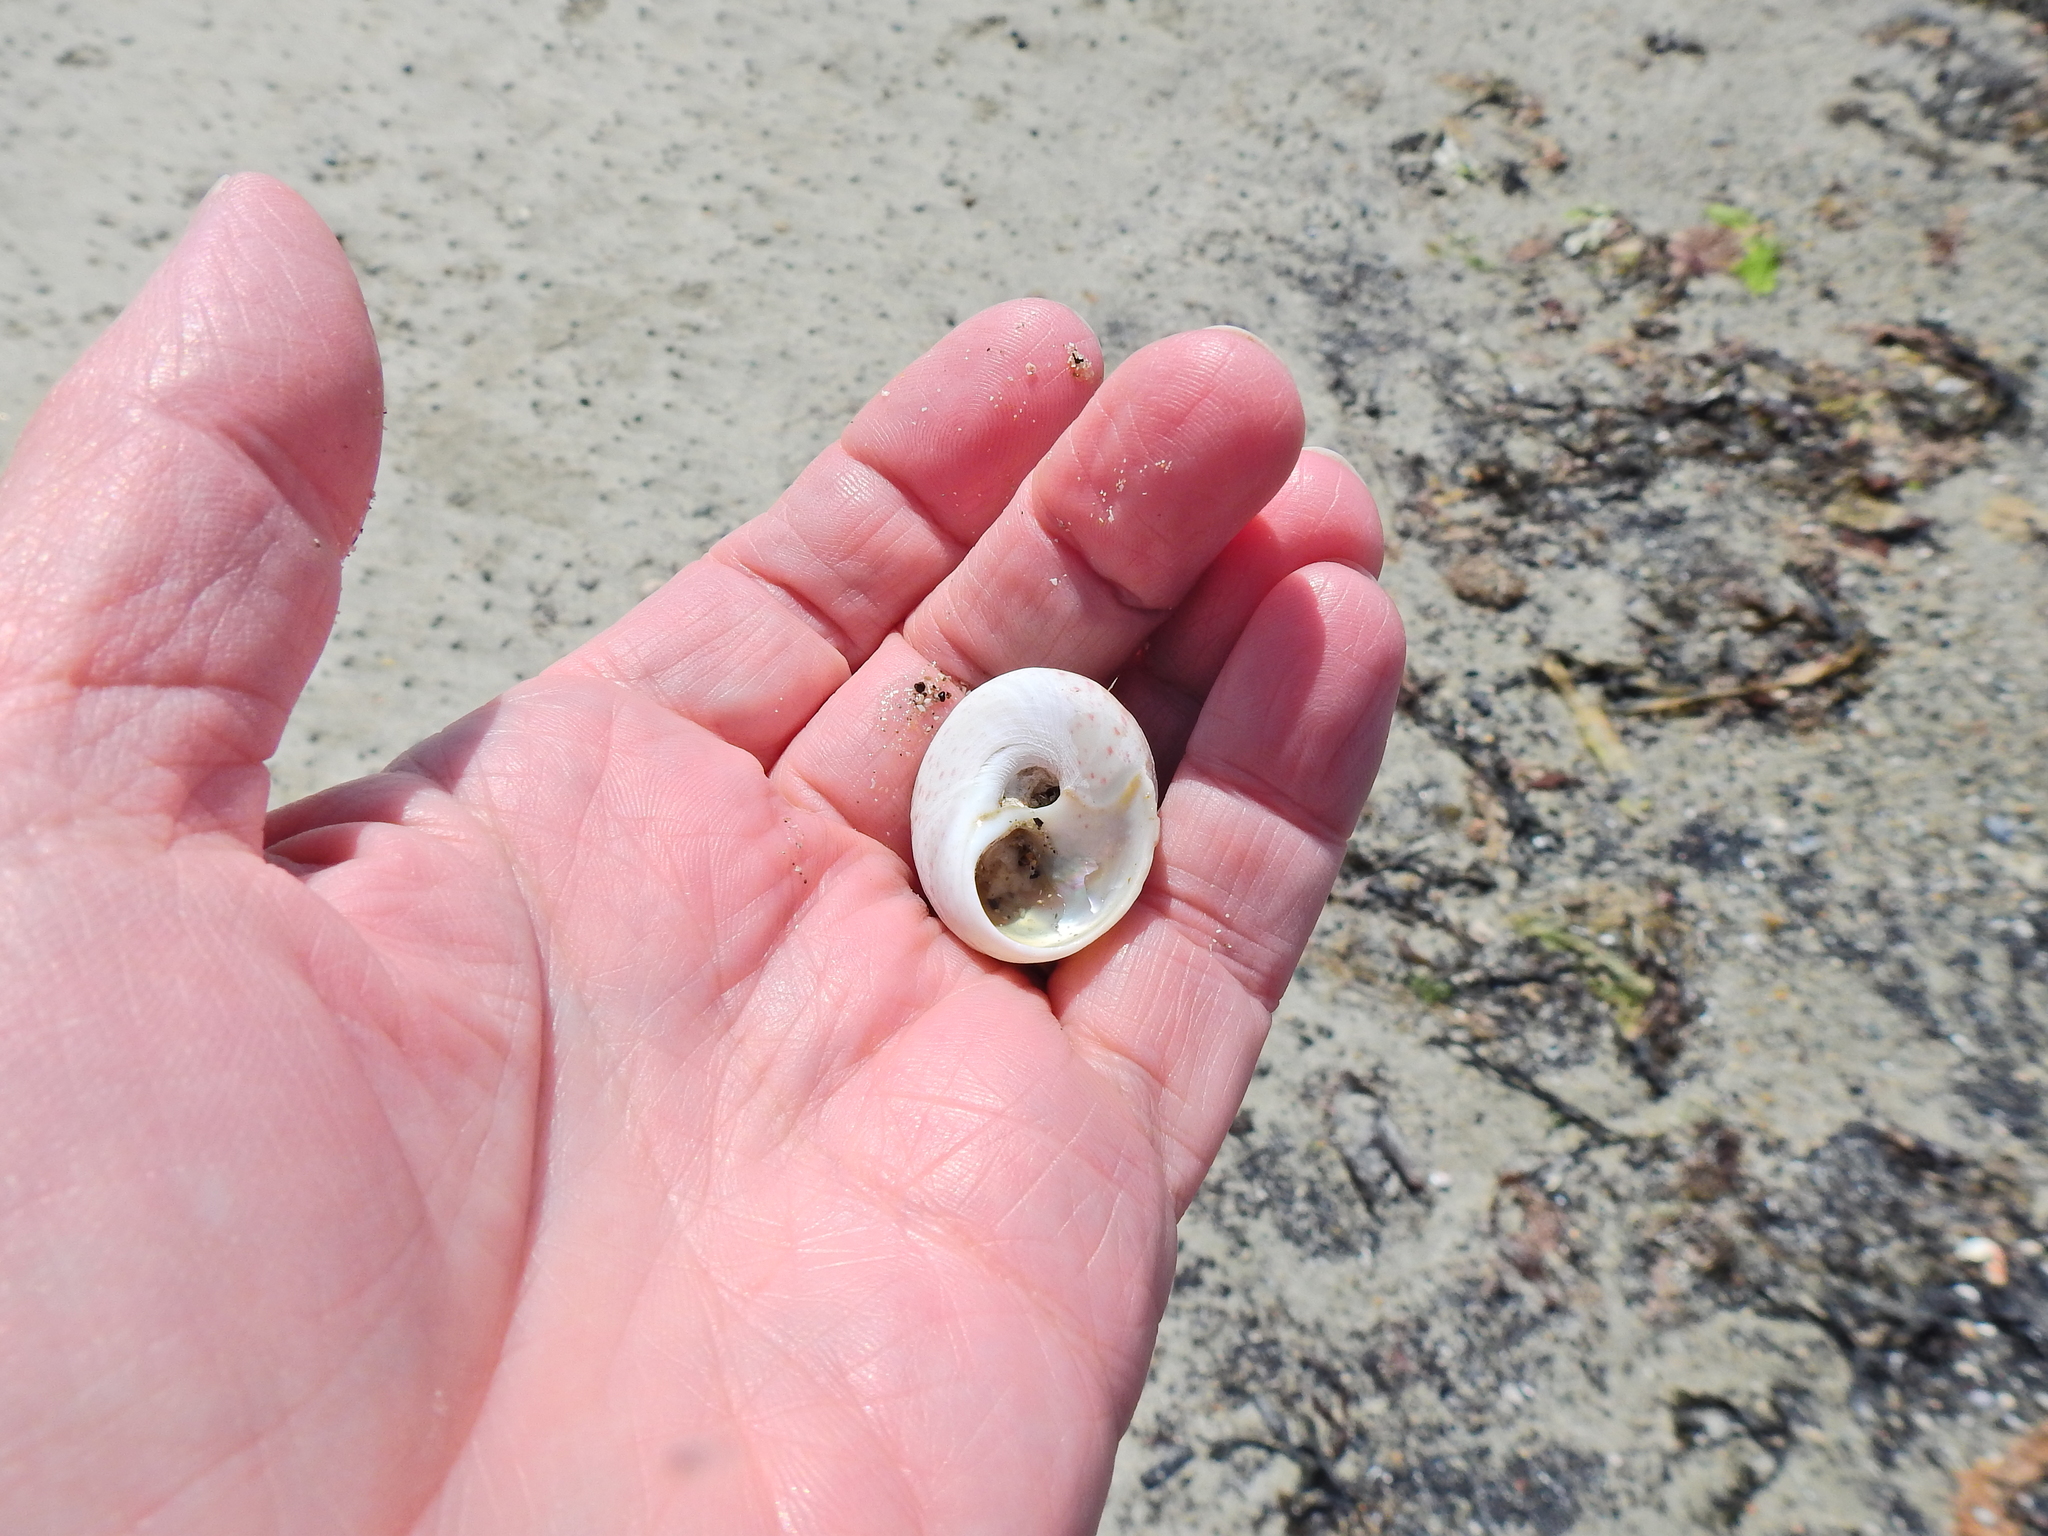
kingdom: Animalia
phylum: Mollusca
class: Gastropoda
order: Trochida
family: Trochidae
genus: Gibbula
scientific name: Gibbula magus
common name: Turban top shell
